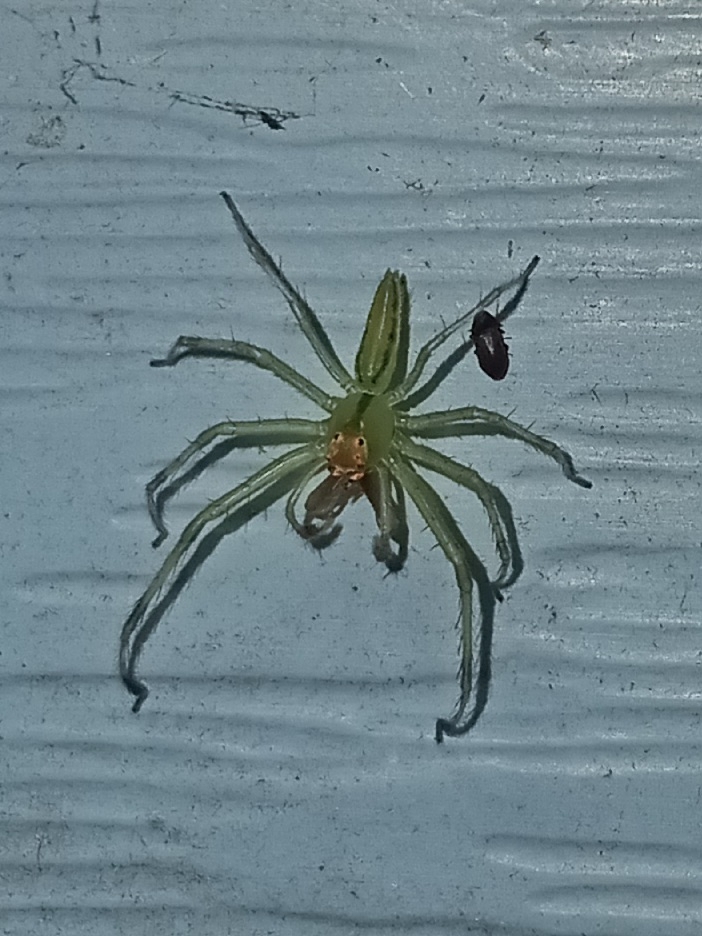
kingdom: Animalia
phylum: Arthropoda
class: Arachnida
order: Araneae
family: Salticidae
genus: Lyssomanes
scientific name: Lyssomanes viridis
